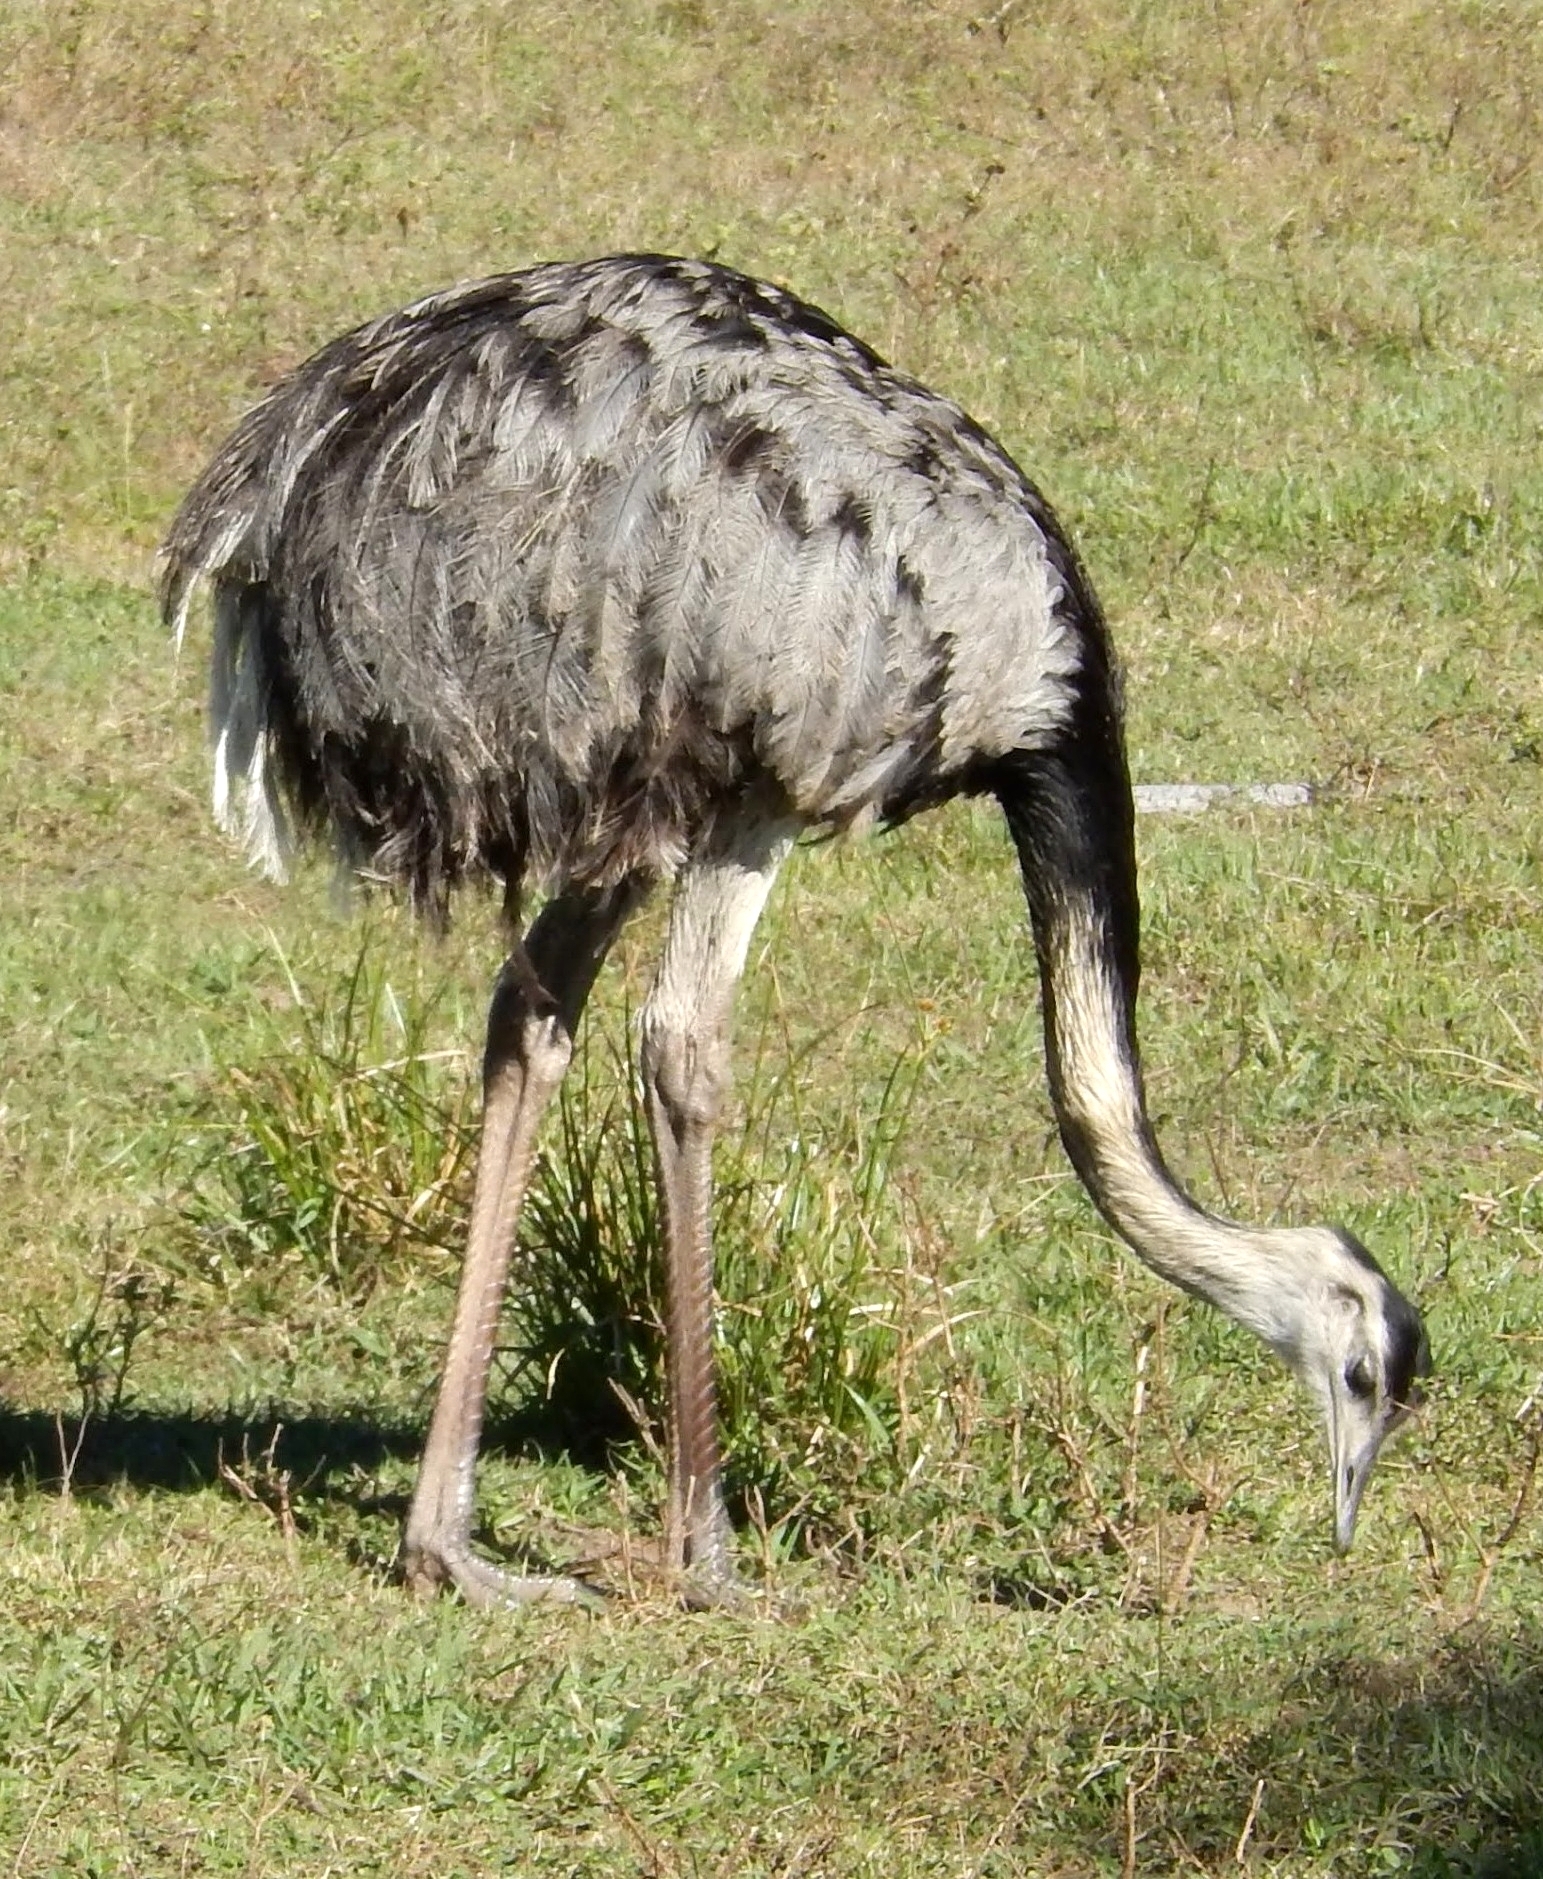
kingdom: Animalia
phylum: Chordata
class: Aves
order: Rheiformes
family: Rheidae
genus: Rhea
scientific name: Rhea americana
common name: Greater rhea
